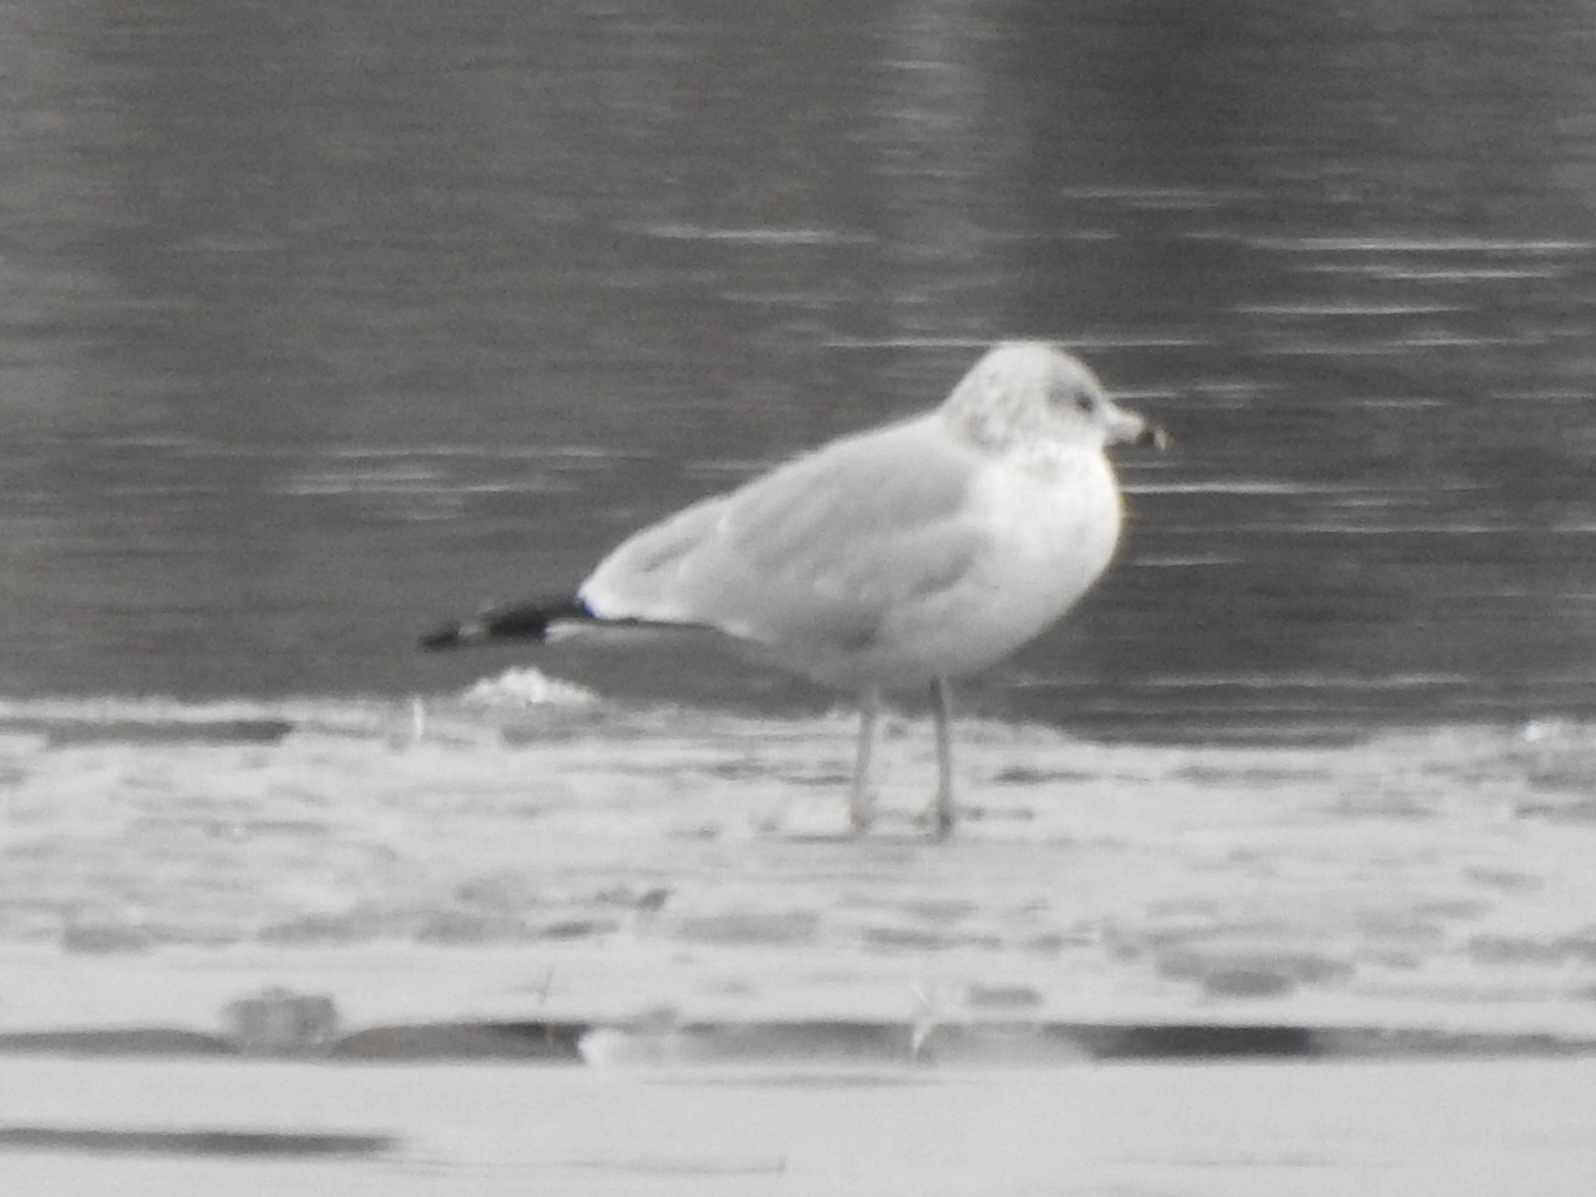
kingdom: Animalia
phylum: Chordata
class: Aves
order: Charadriiformes
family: Laridae
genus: Larus
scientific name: Larus delawarensis
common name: Ring-billed gull
